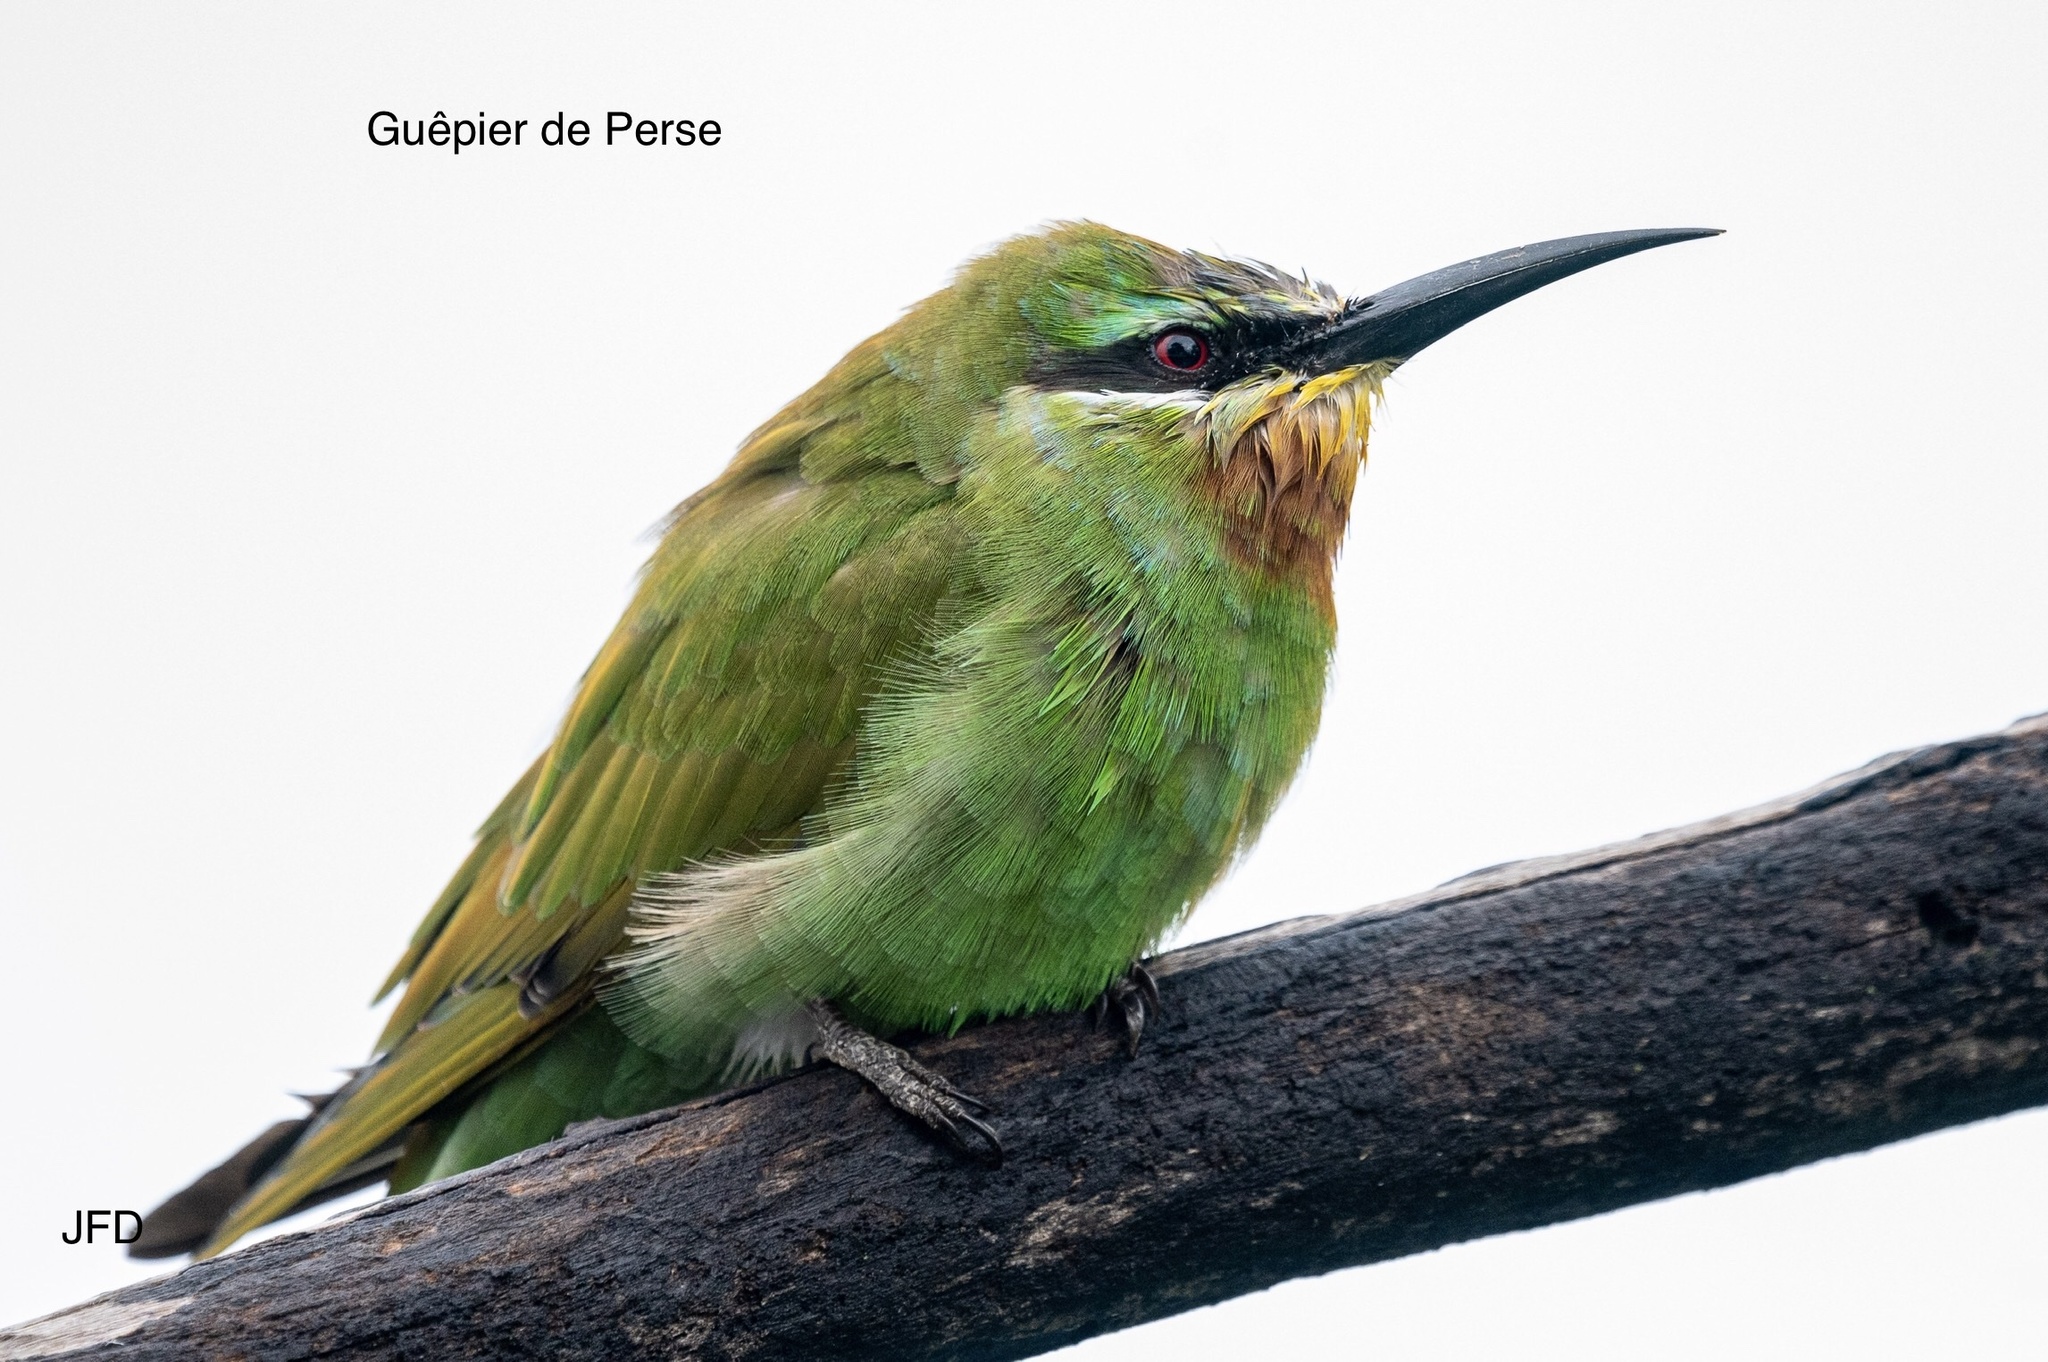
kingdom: Animalia
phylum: Chordata
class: Aves
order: Coraciiformes
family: Meropidae
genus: Merops
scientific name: Merops persicus
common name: Blue-cheeked bee-eater
